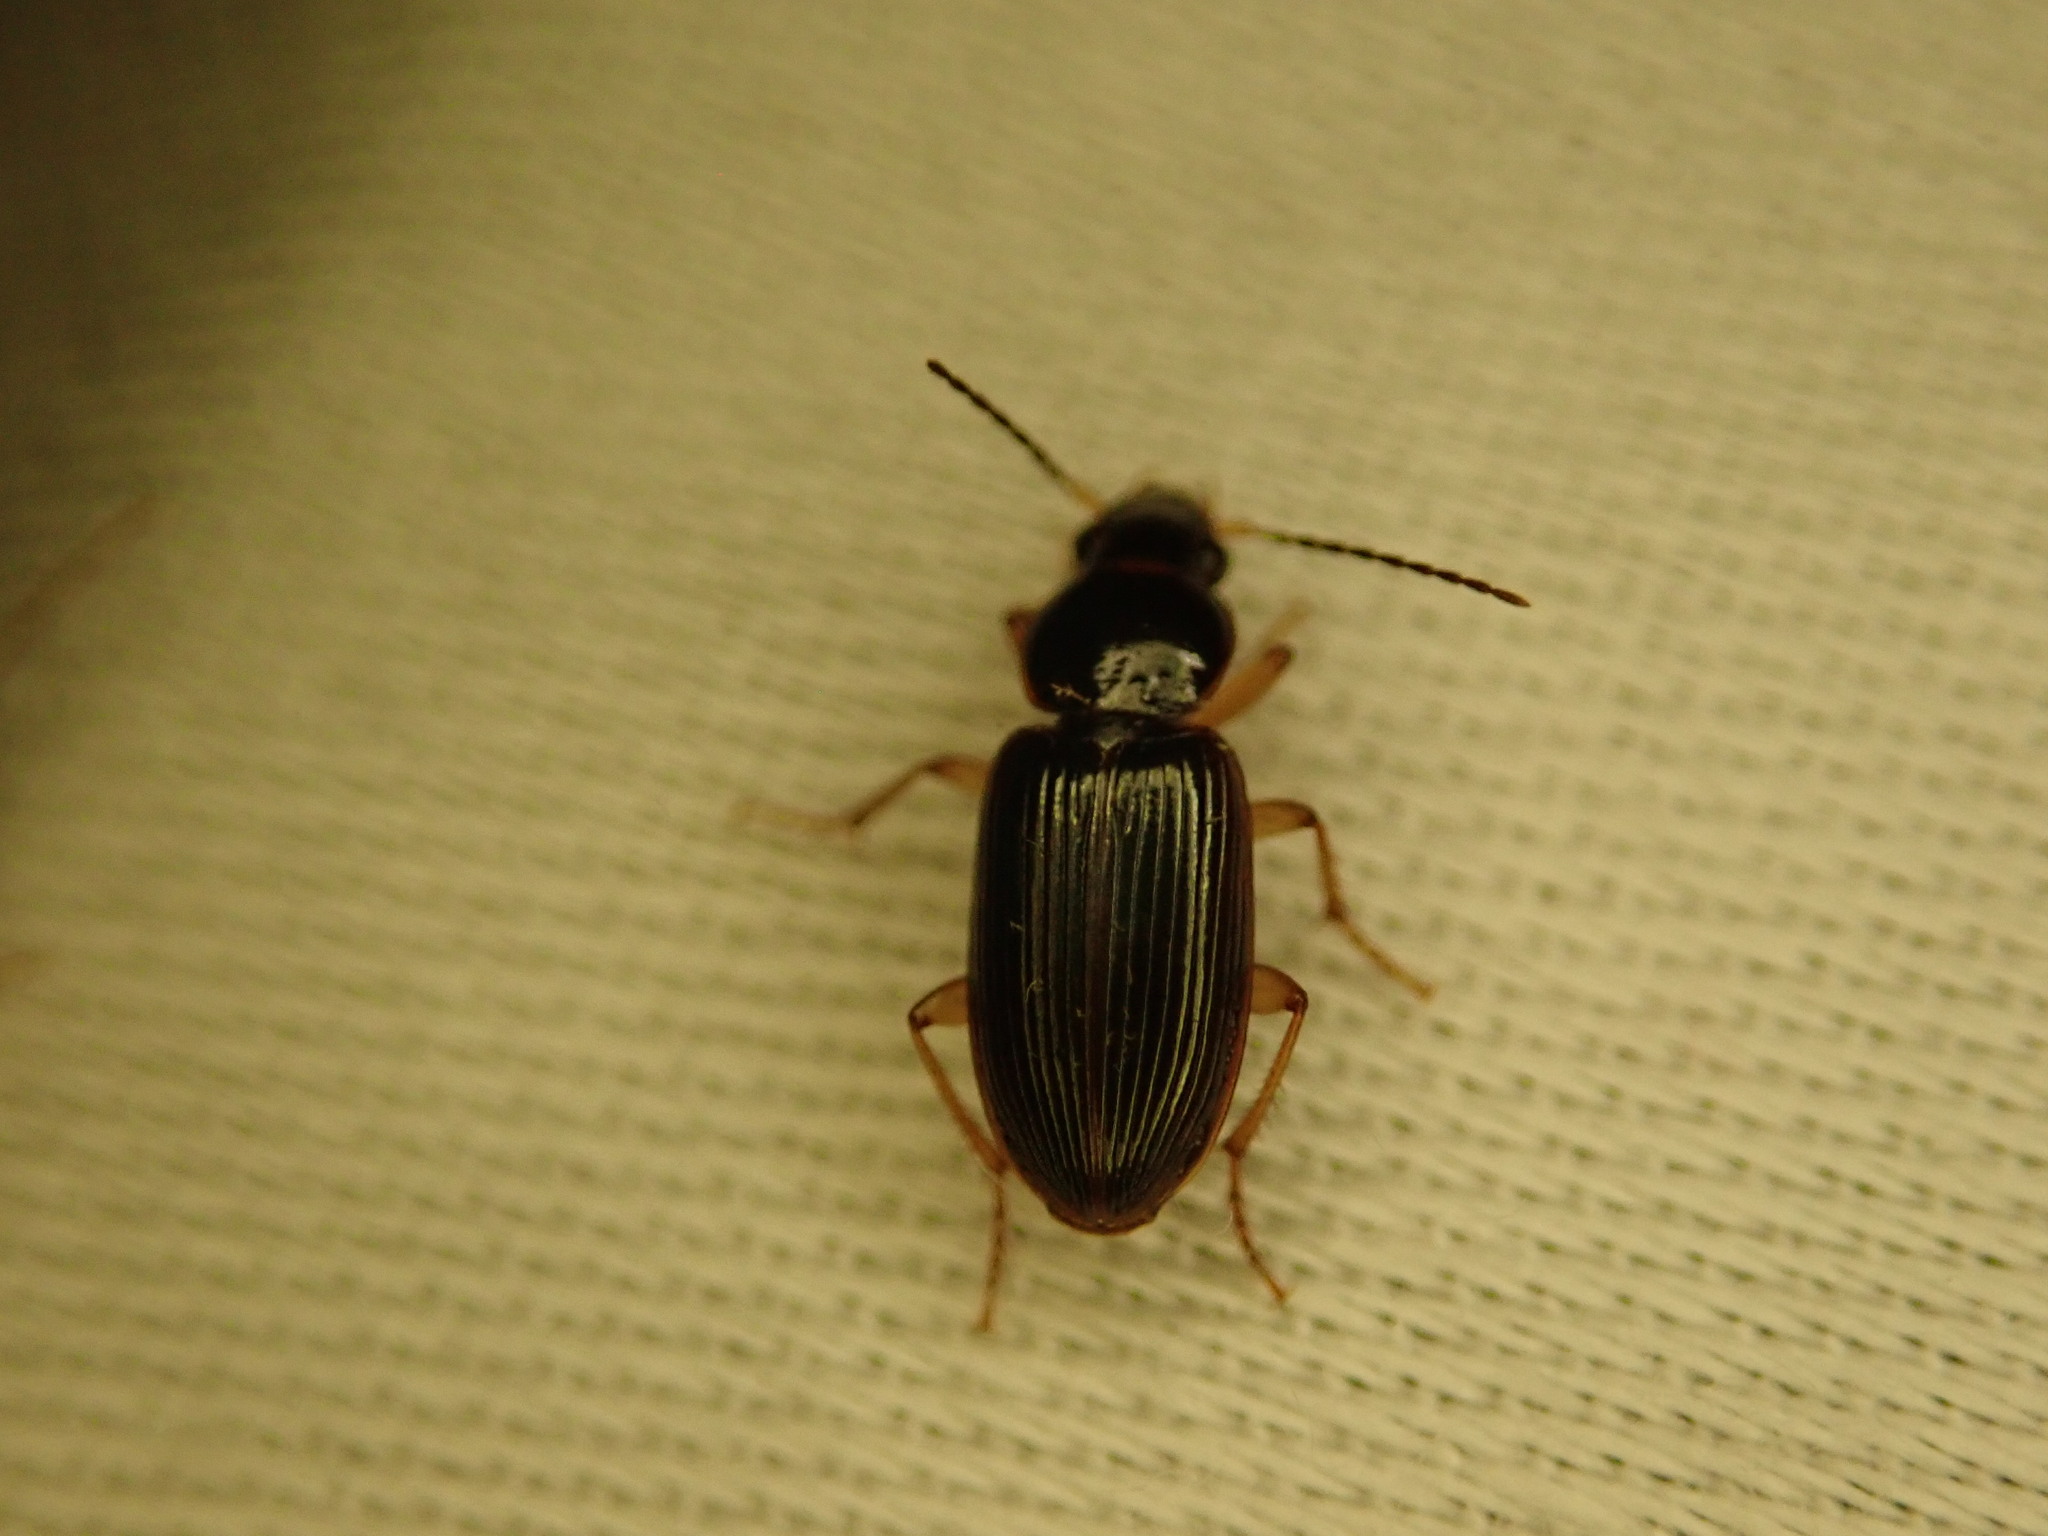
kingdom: Animalia
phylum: Arthropoda
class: Insecta
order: Coleoptera
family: Carabidae
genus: Stenolophus
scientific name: Stenolophus ochropezus
